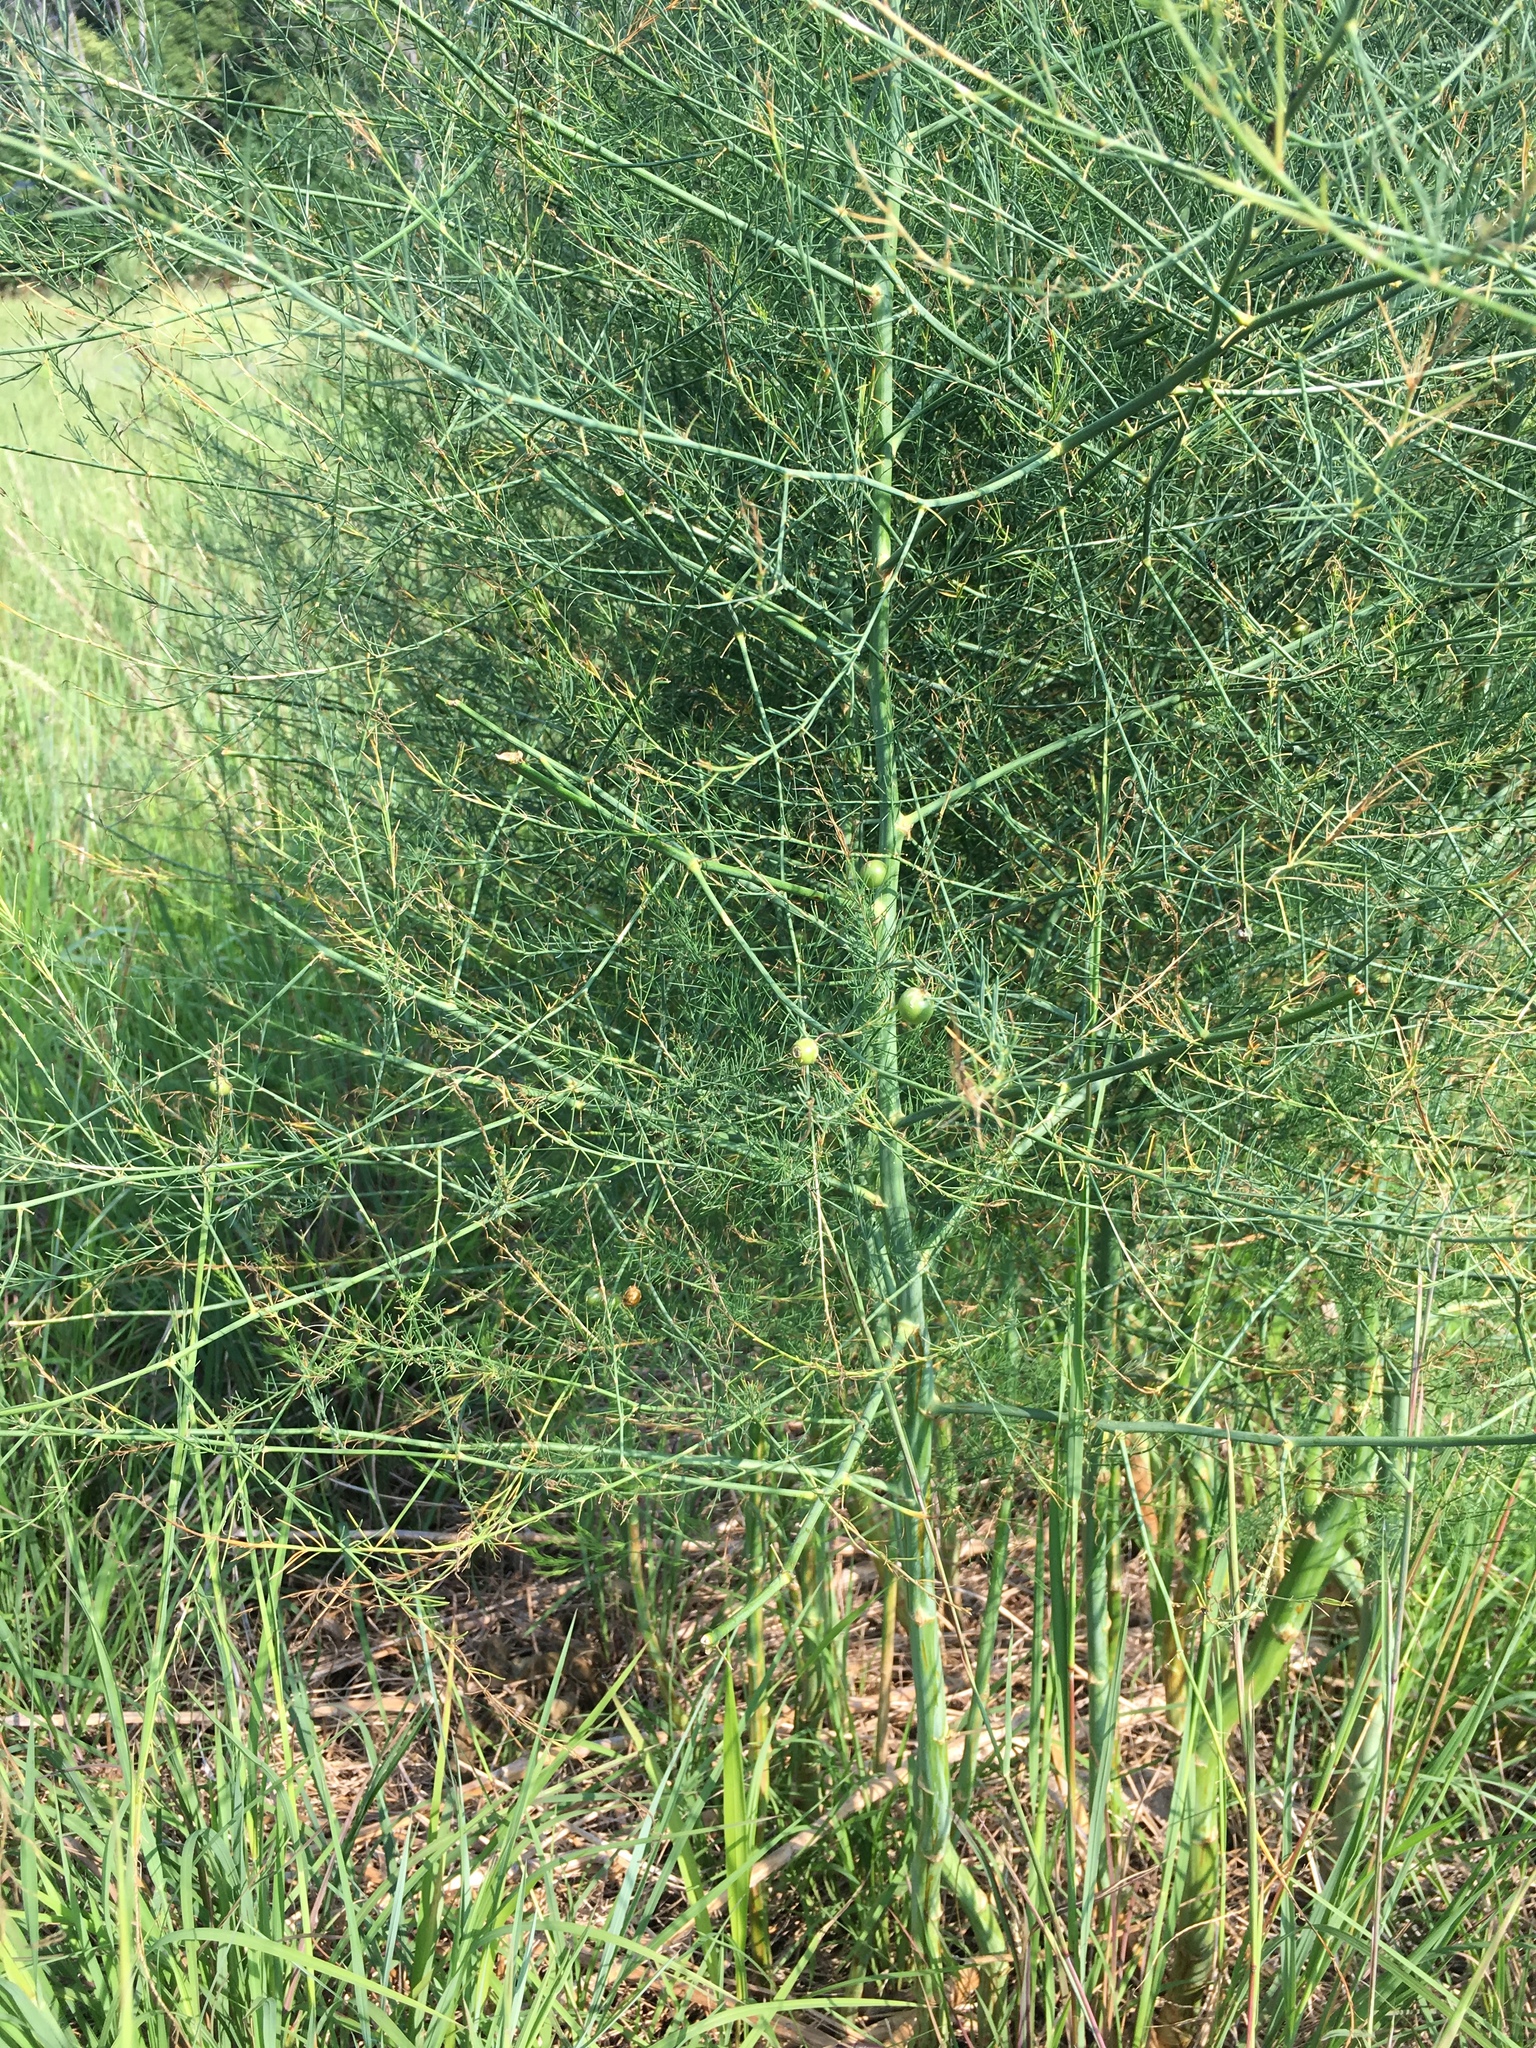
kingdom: Plantae
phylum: Tracheophyta
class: Liliopsida
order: Asparagales
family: Asparagaceae
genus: Asparagus
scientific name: Asparagus officinalis
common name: Garden asparagus
